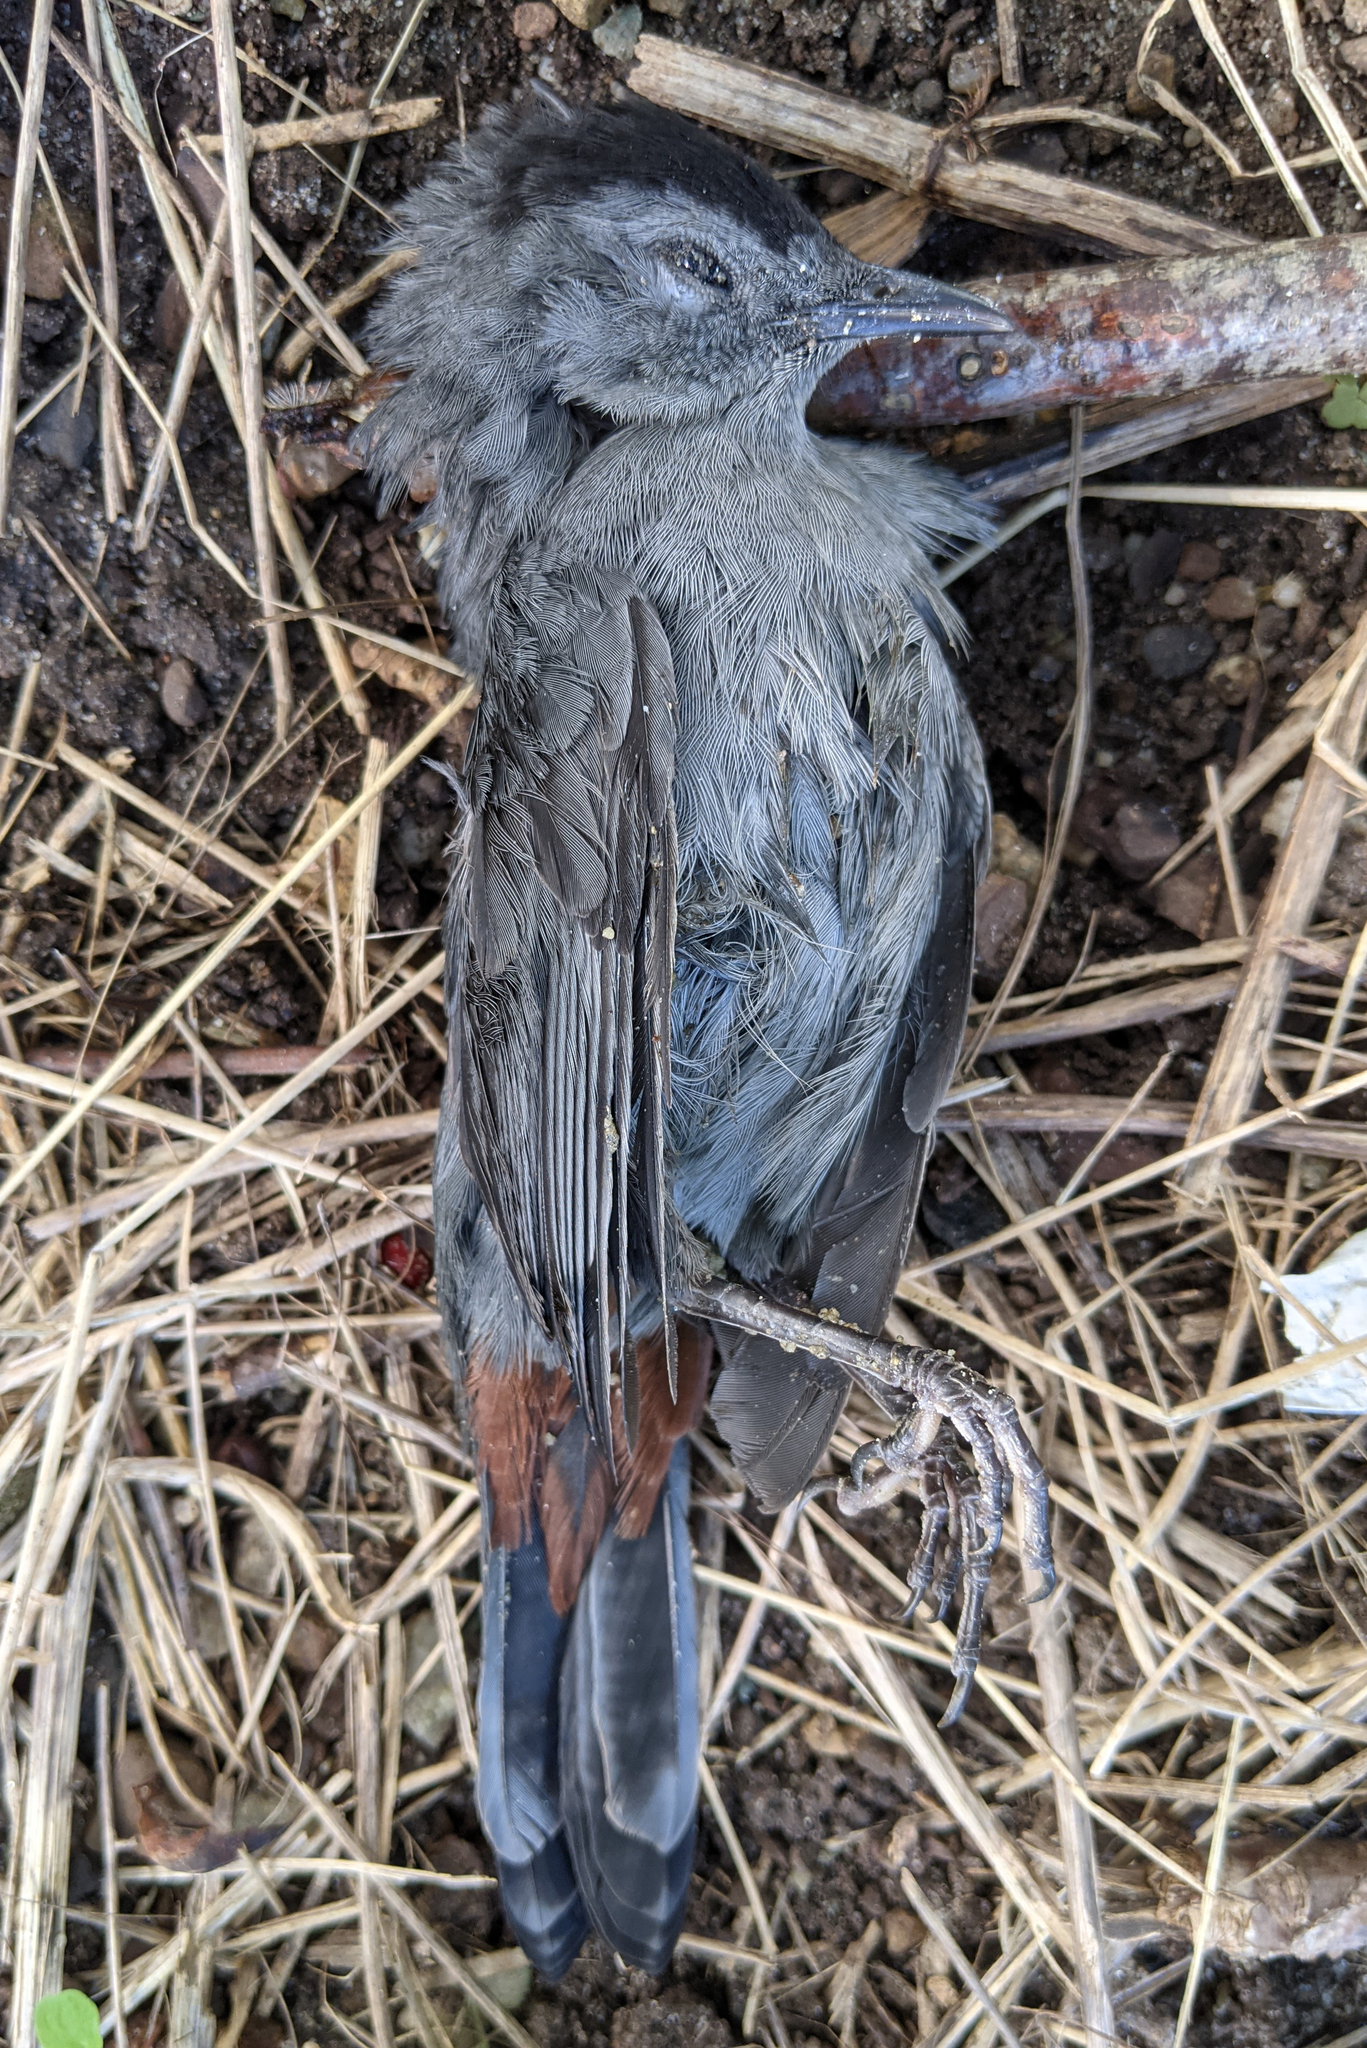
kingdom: Animalia
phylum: Chordata
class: Aves
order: Passeriformes
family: Mimidae
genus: Dumetella
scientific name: Dumetella carolinensis
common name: Gray catbird
